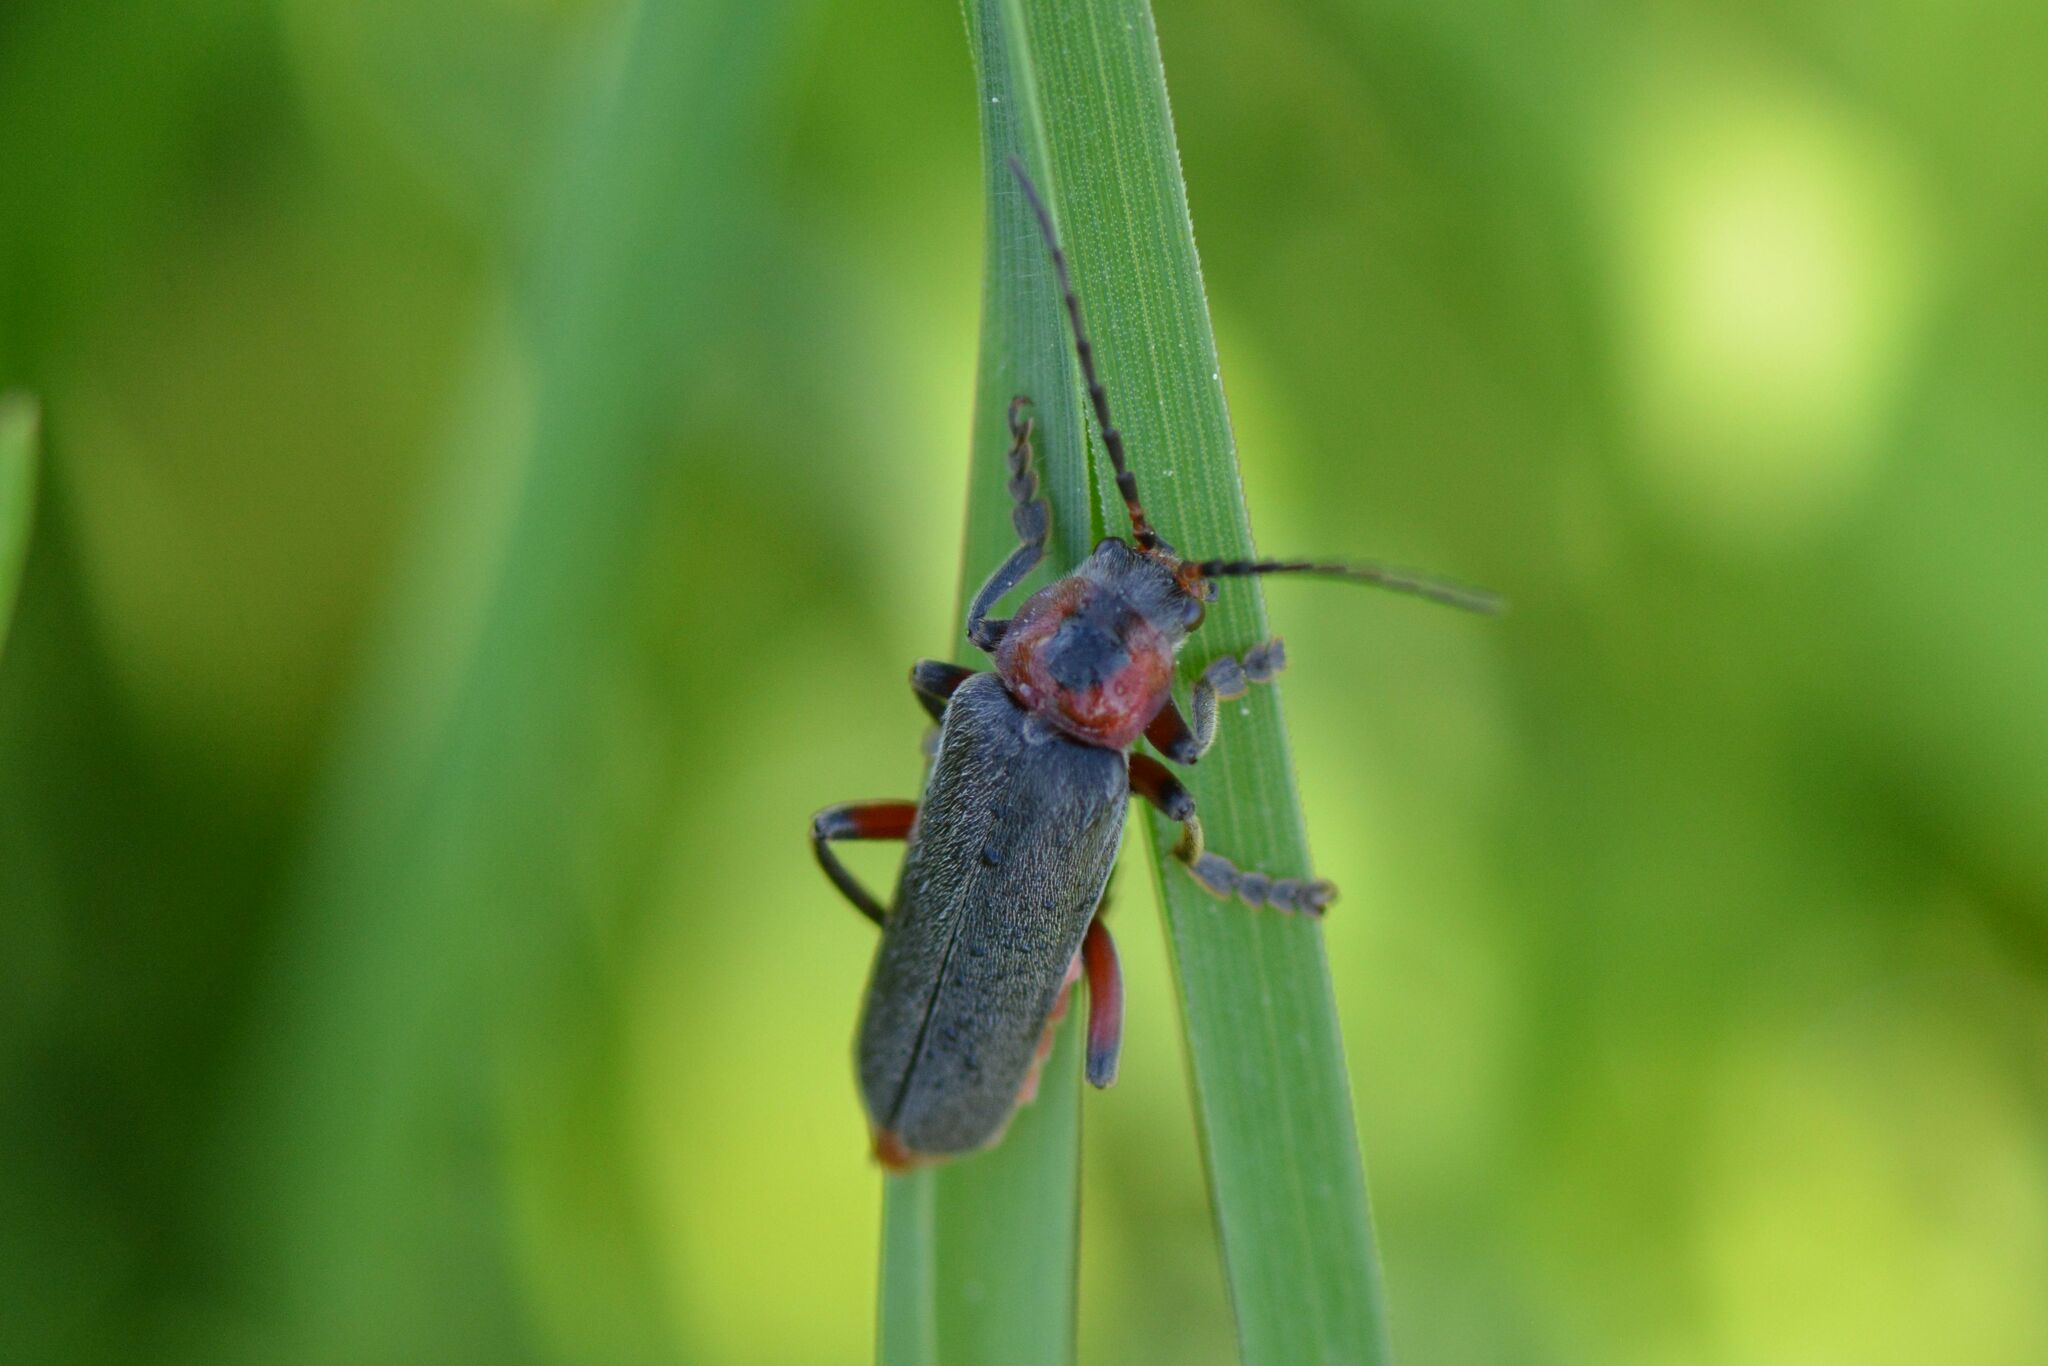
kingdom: Animalia
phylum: Arthropoda
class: Insecta
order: Coleoptera
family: Cantharidae
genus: Cantharis
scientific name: Cantharis rustica
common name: Soldier beetle
